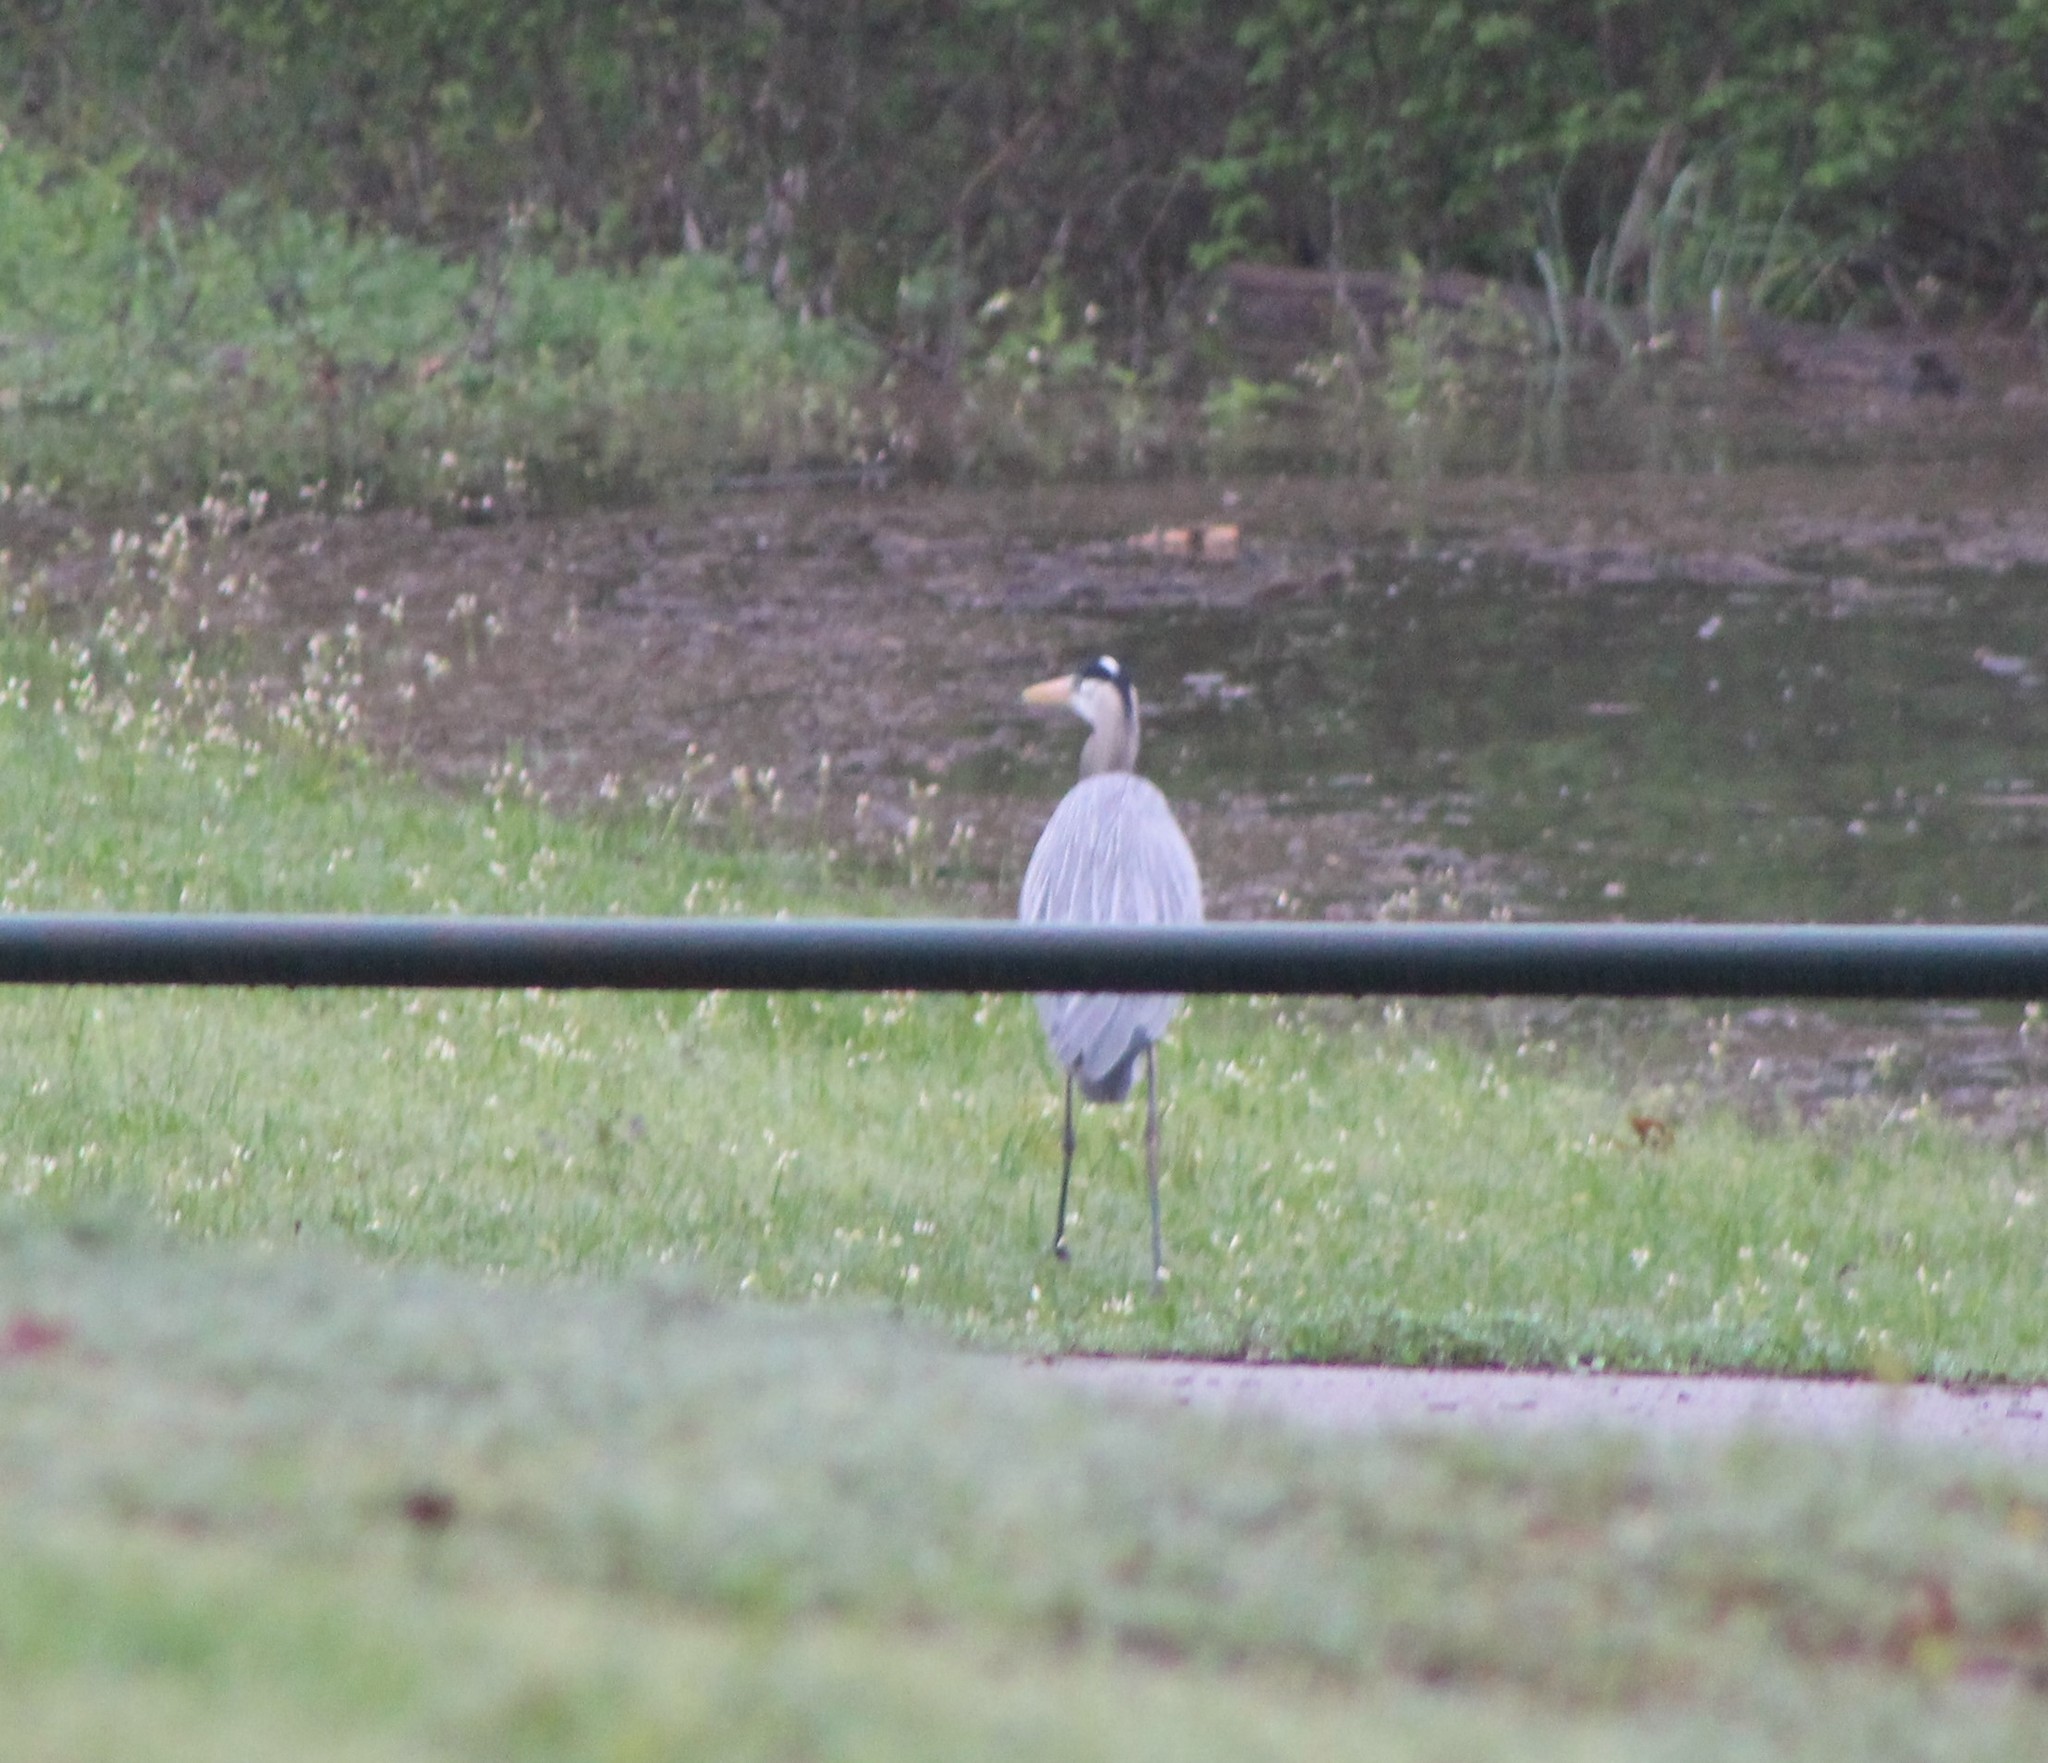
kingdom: Animalia
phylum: Chordata
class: Aves
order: Pelecaniformes
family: Ardeidae
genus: Ardea
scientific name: Ardea herodias
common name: Great blue heron
